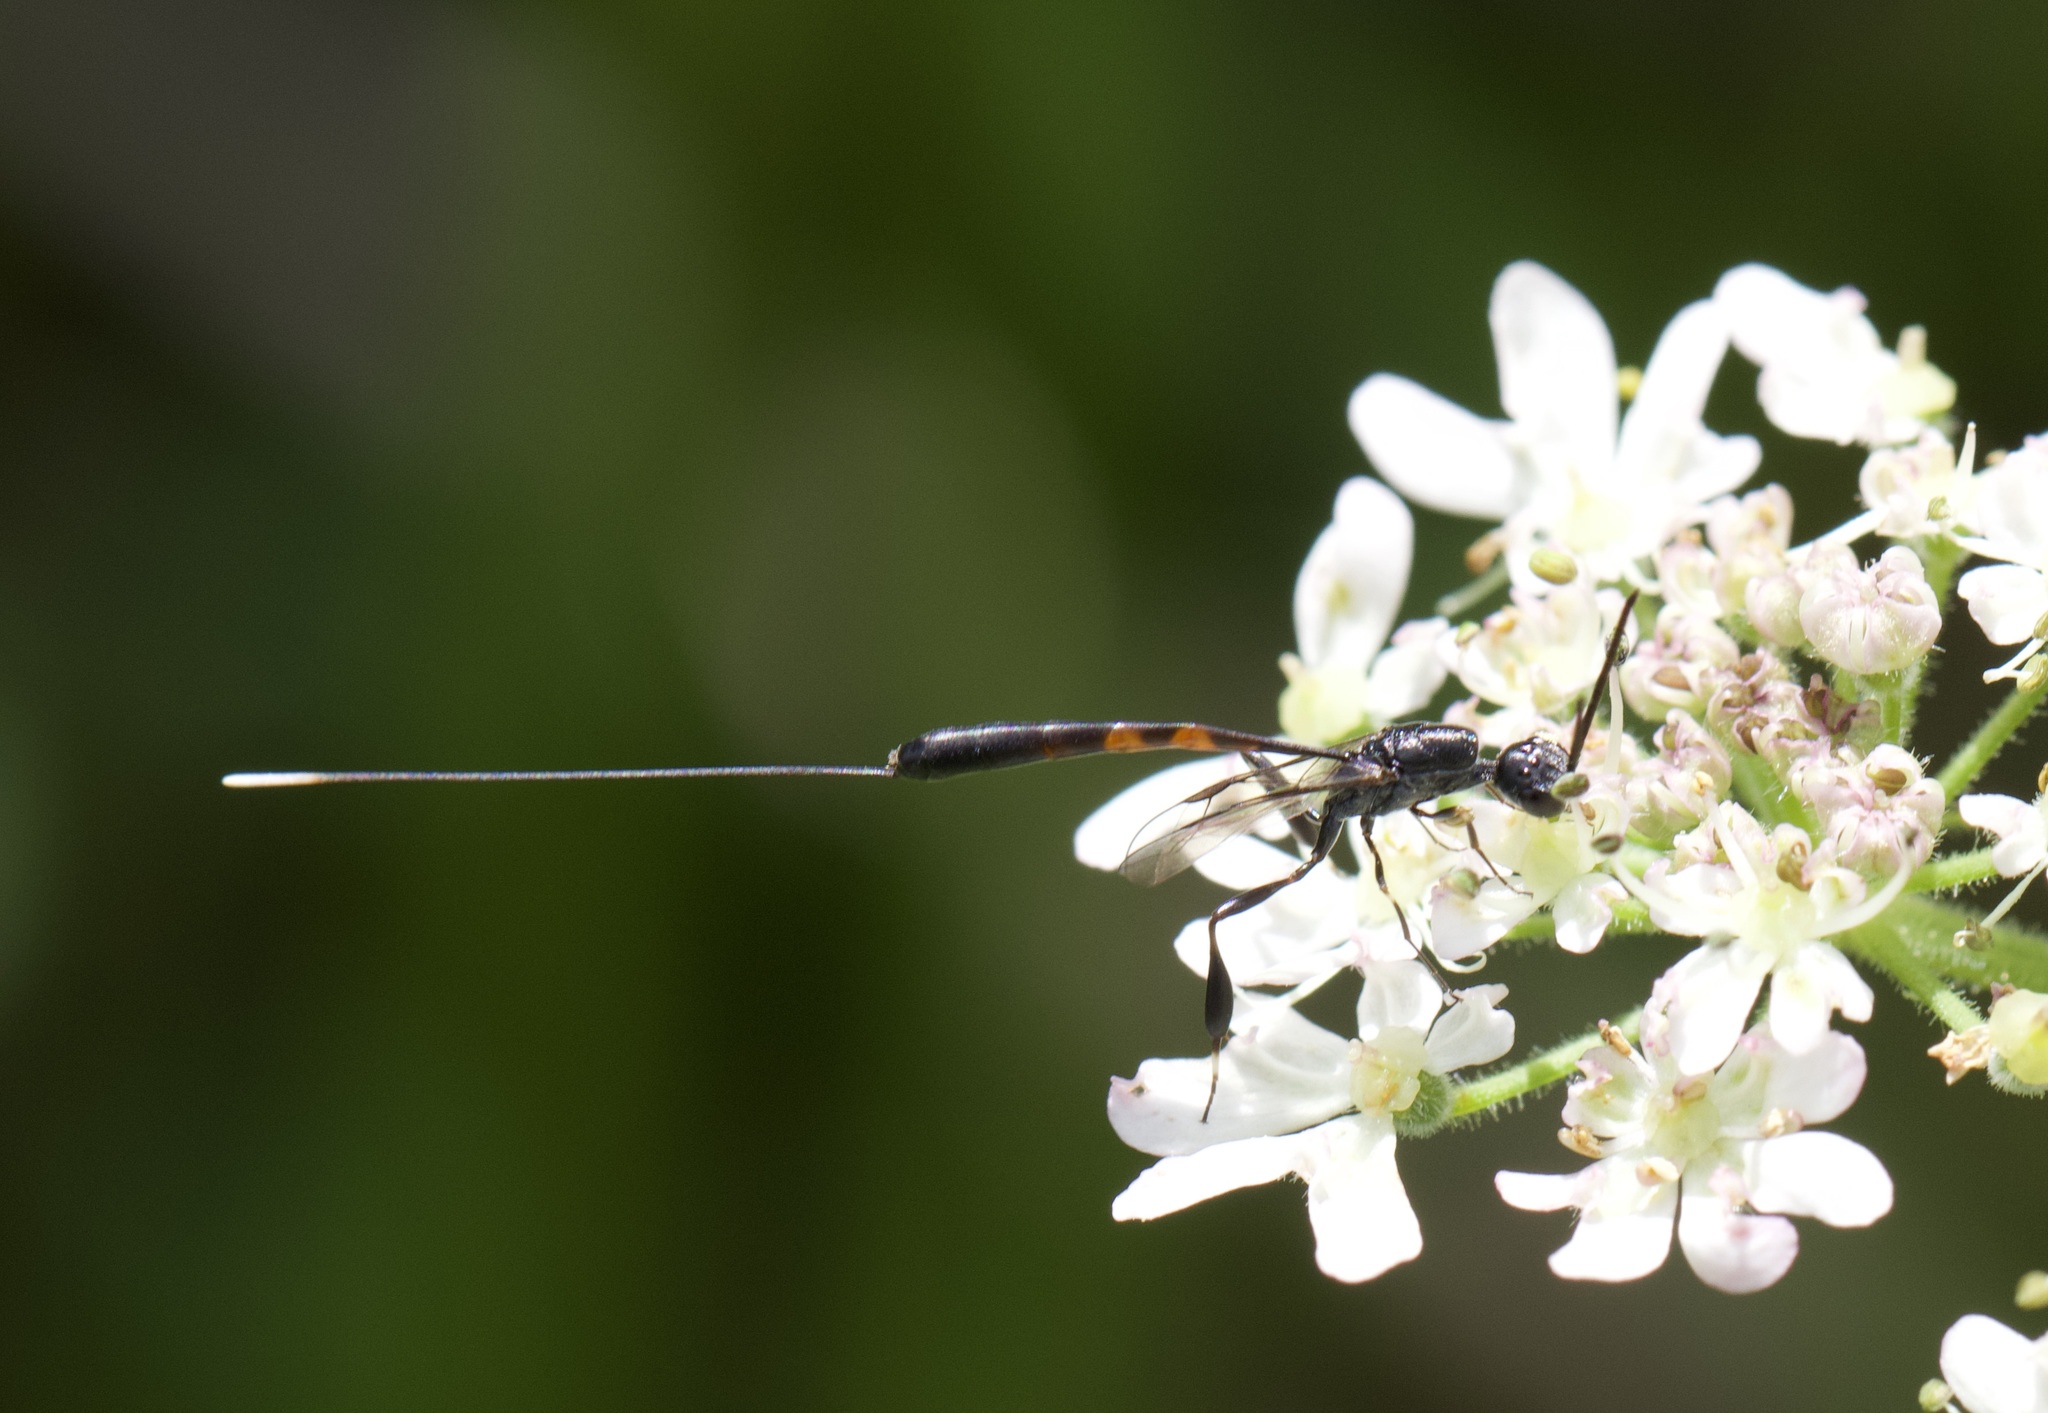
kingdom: Animalia
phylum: Arthropoda
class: Insecta
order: Hymenoptera
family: Gasteruptiidae
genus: Gasteruption
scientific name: Gasteruption jaculator
